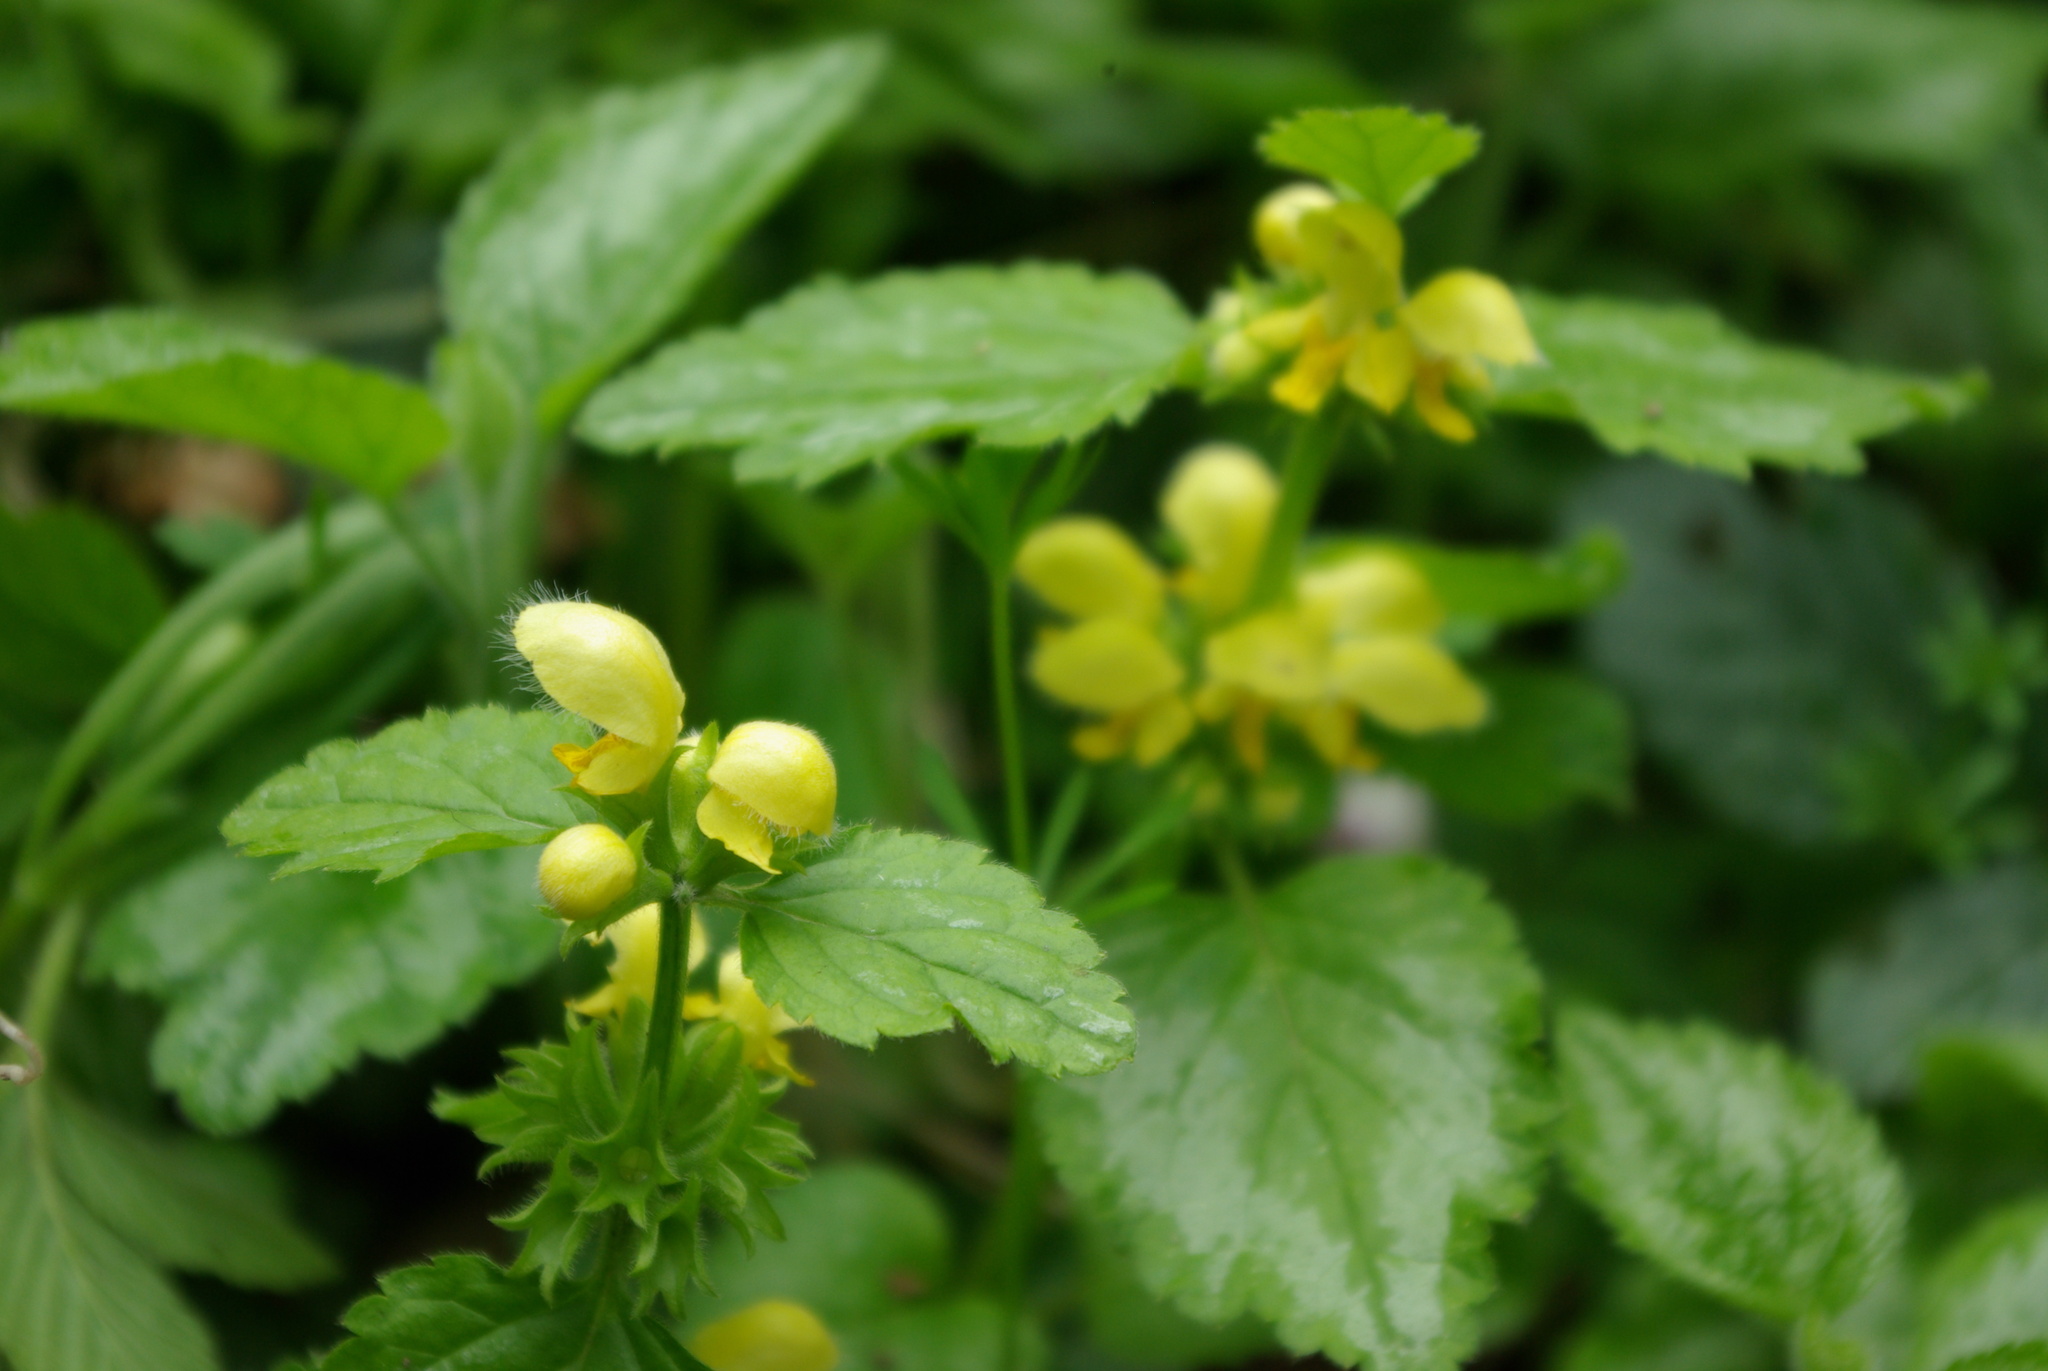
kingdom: Plantae
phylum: Tracheophyta
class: Magnoliopsida
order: Lamiales
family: Lamiaceae
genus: Lamium
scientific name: Lamium galeobdolon
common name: Yellow archangel
